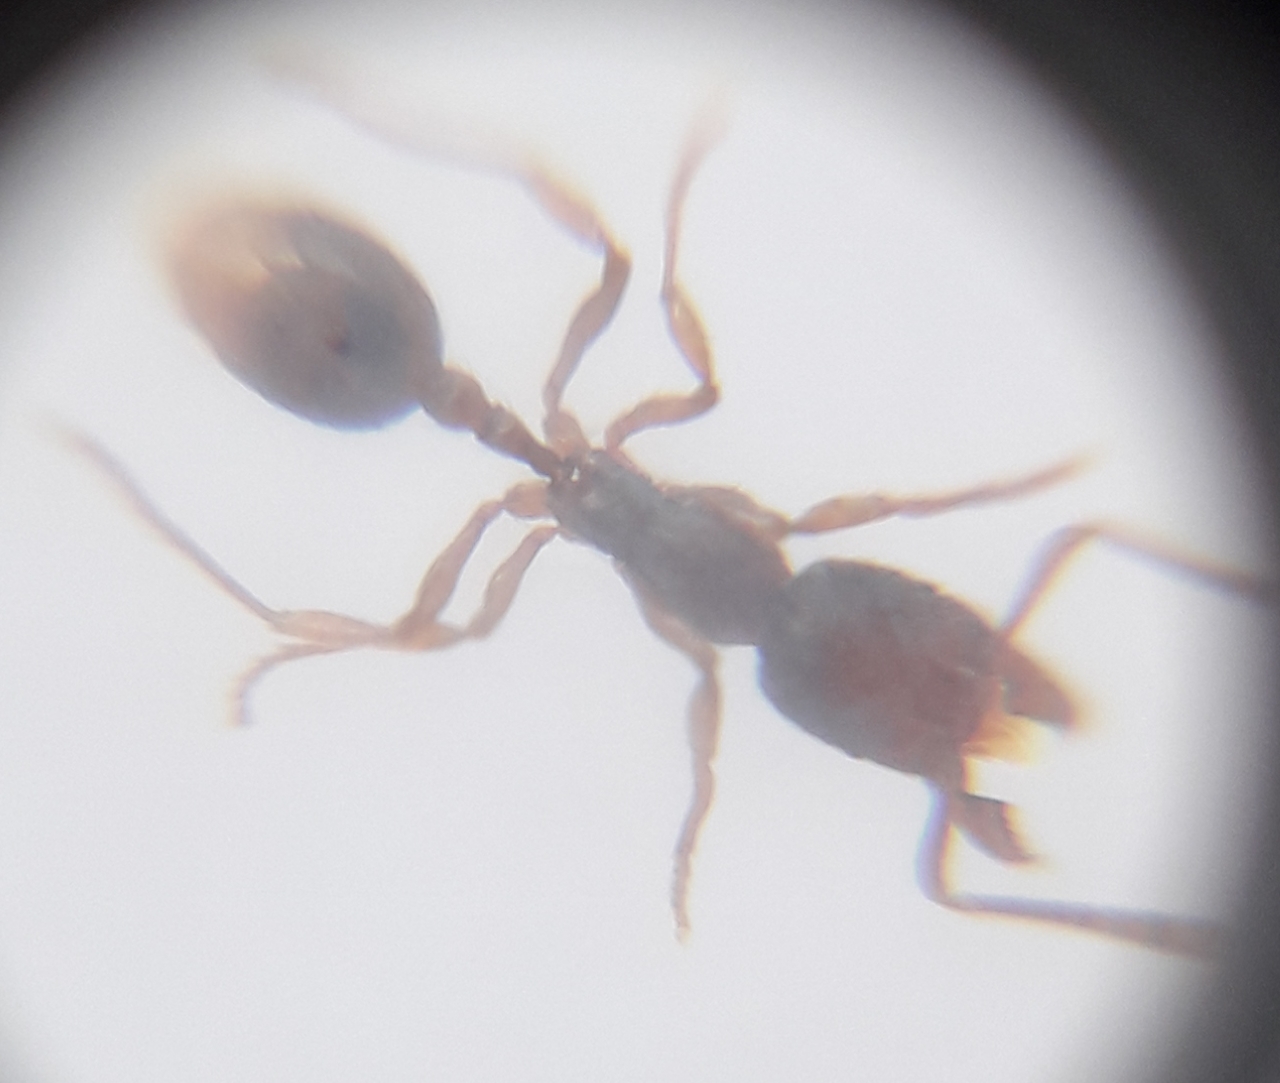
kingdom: Animalia
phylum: Arthropoda
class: Insecta
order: Hymenoptera
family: Formicidae
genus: Stenamma
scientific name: Stenamma debile
